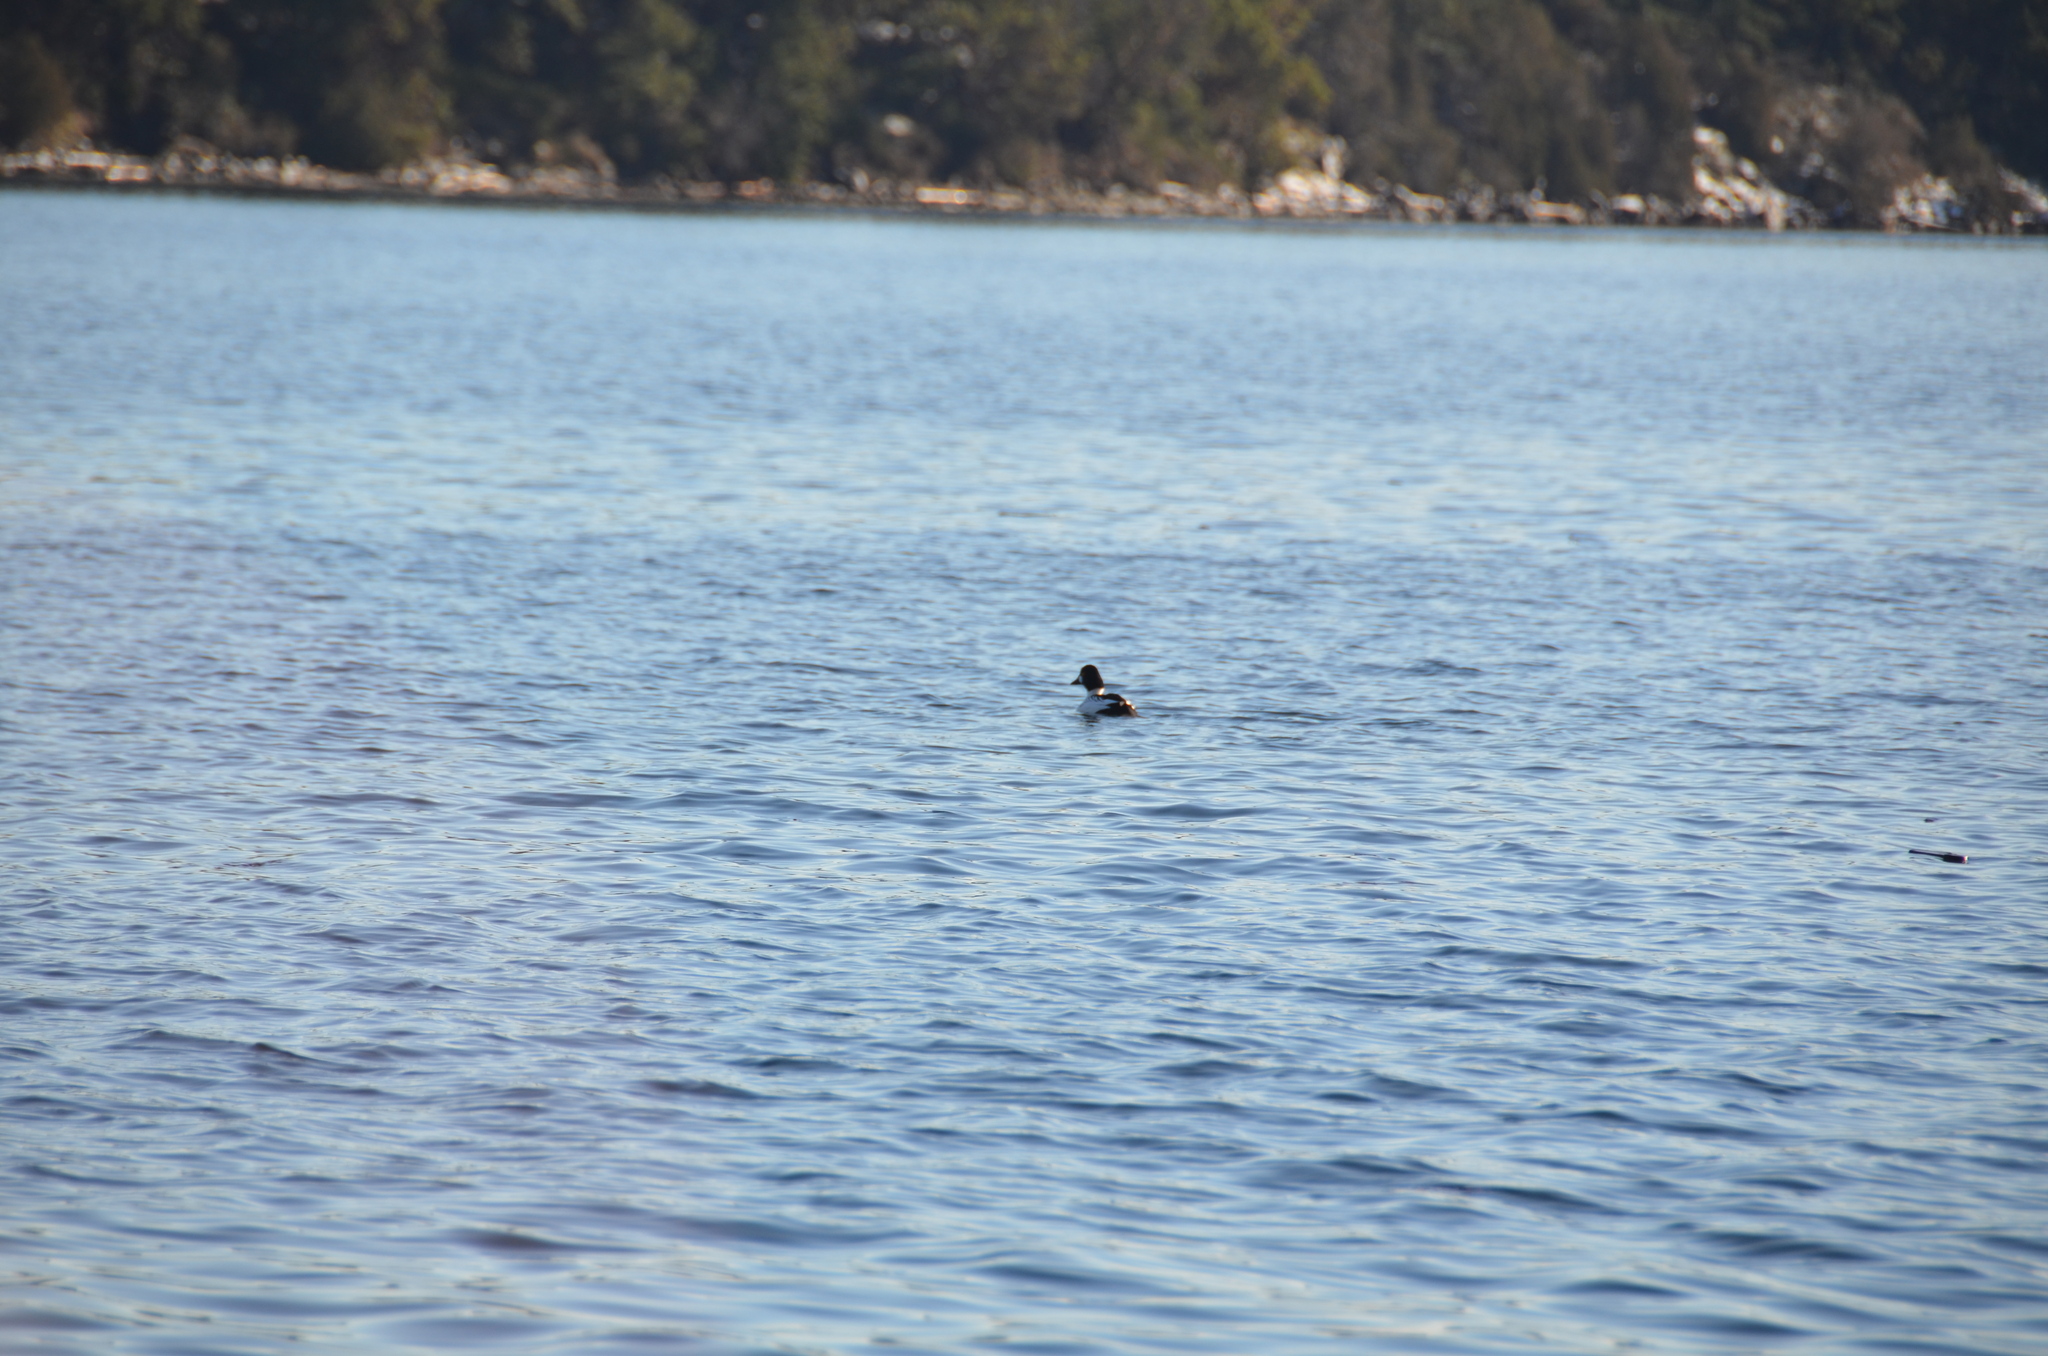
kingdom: Animalia
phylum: Chordata
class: Aves
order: Anseriformes
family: Anatidae
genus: Bucephala
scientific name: Bucephala clangula
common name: Common goldeneye
